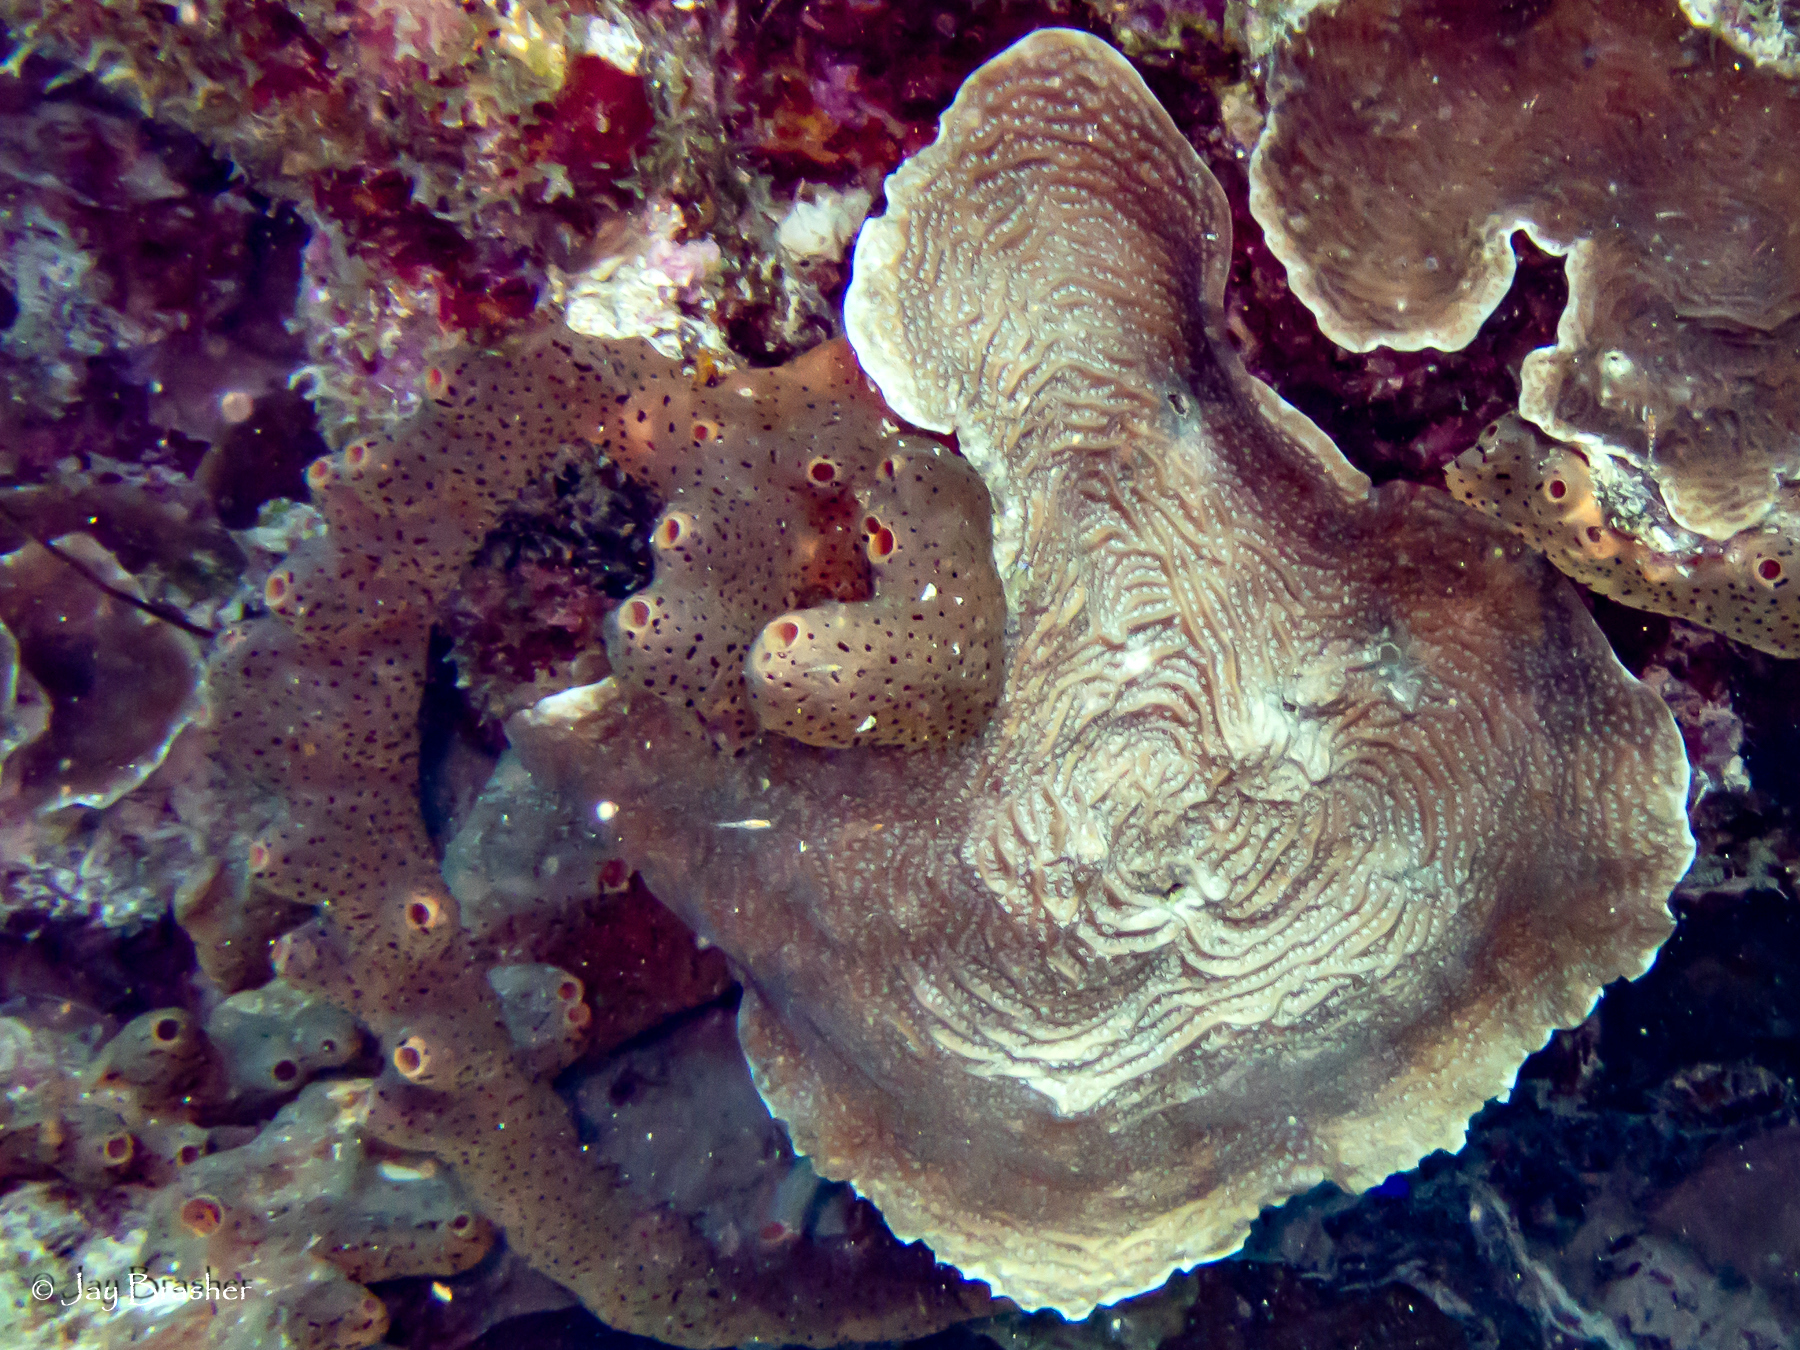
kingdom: Animalia
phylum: Porifera
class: Demospongiae
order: Agelasida
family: Agelasidae
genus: Agelas
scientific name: Agelas conifera
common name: Brown tube sponge
